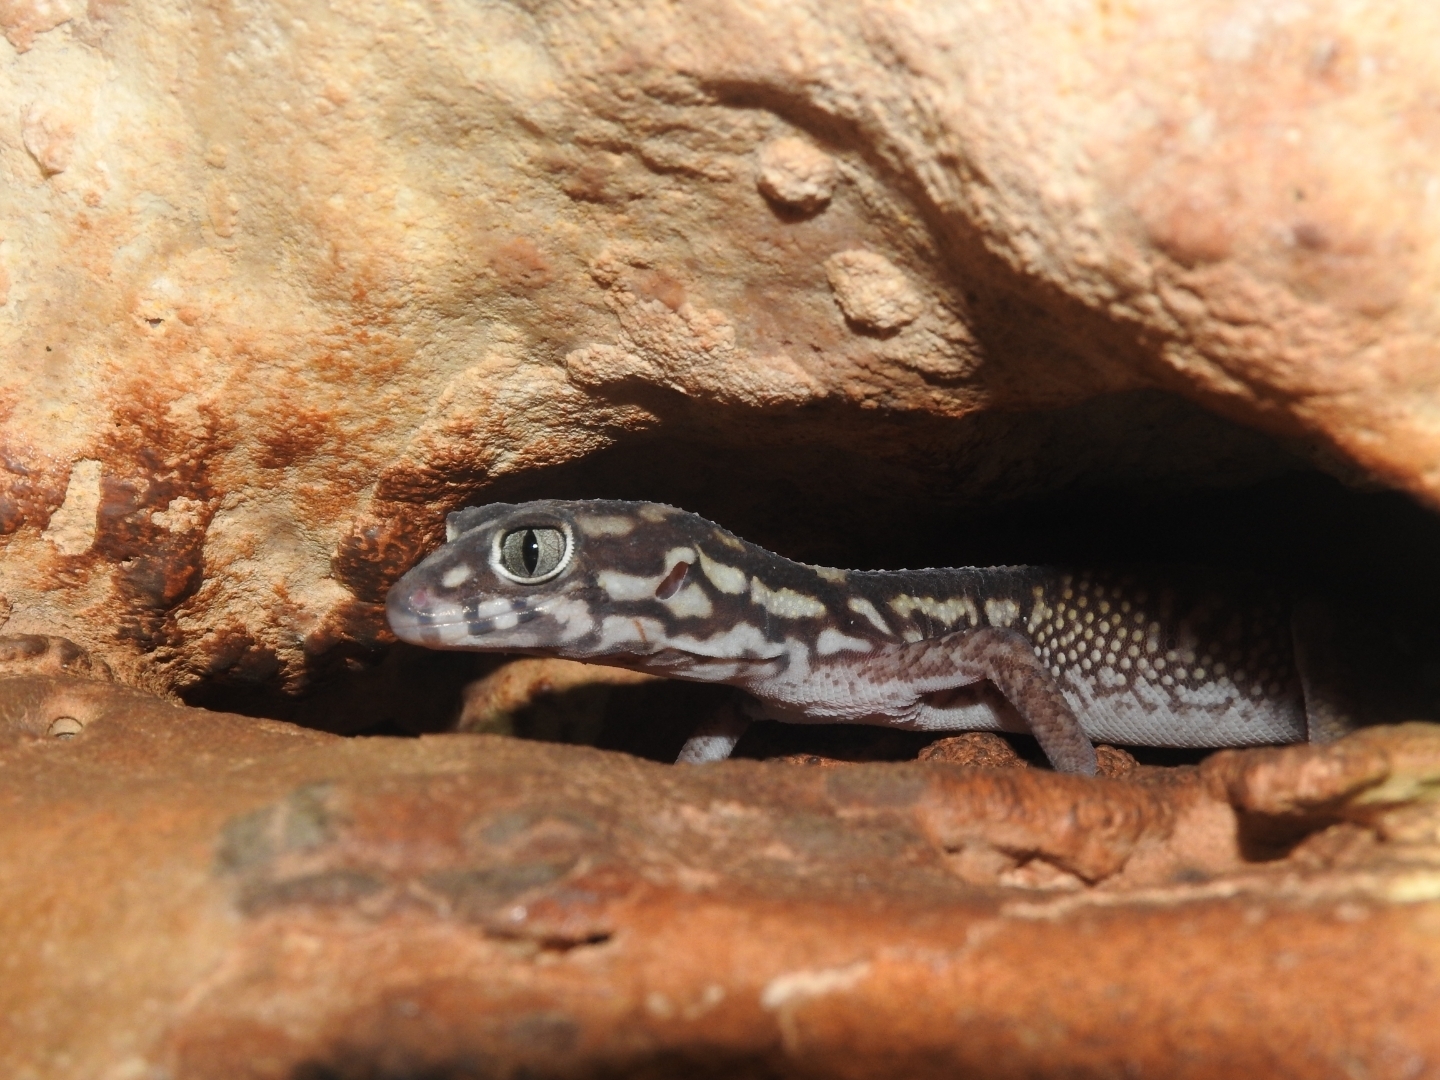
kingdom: Animalia
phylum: Chordata
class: Squamata
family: Eublepharidae
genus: Coleonyx
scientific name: Coleonyx elegans
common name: Yucatan banded gecko
